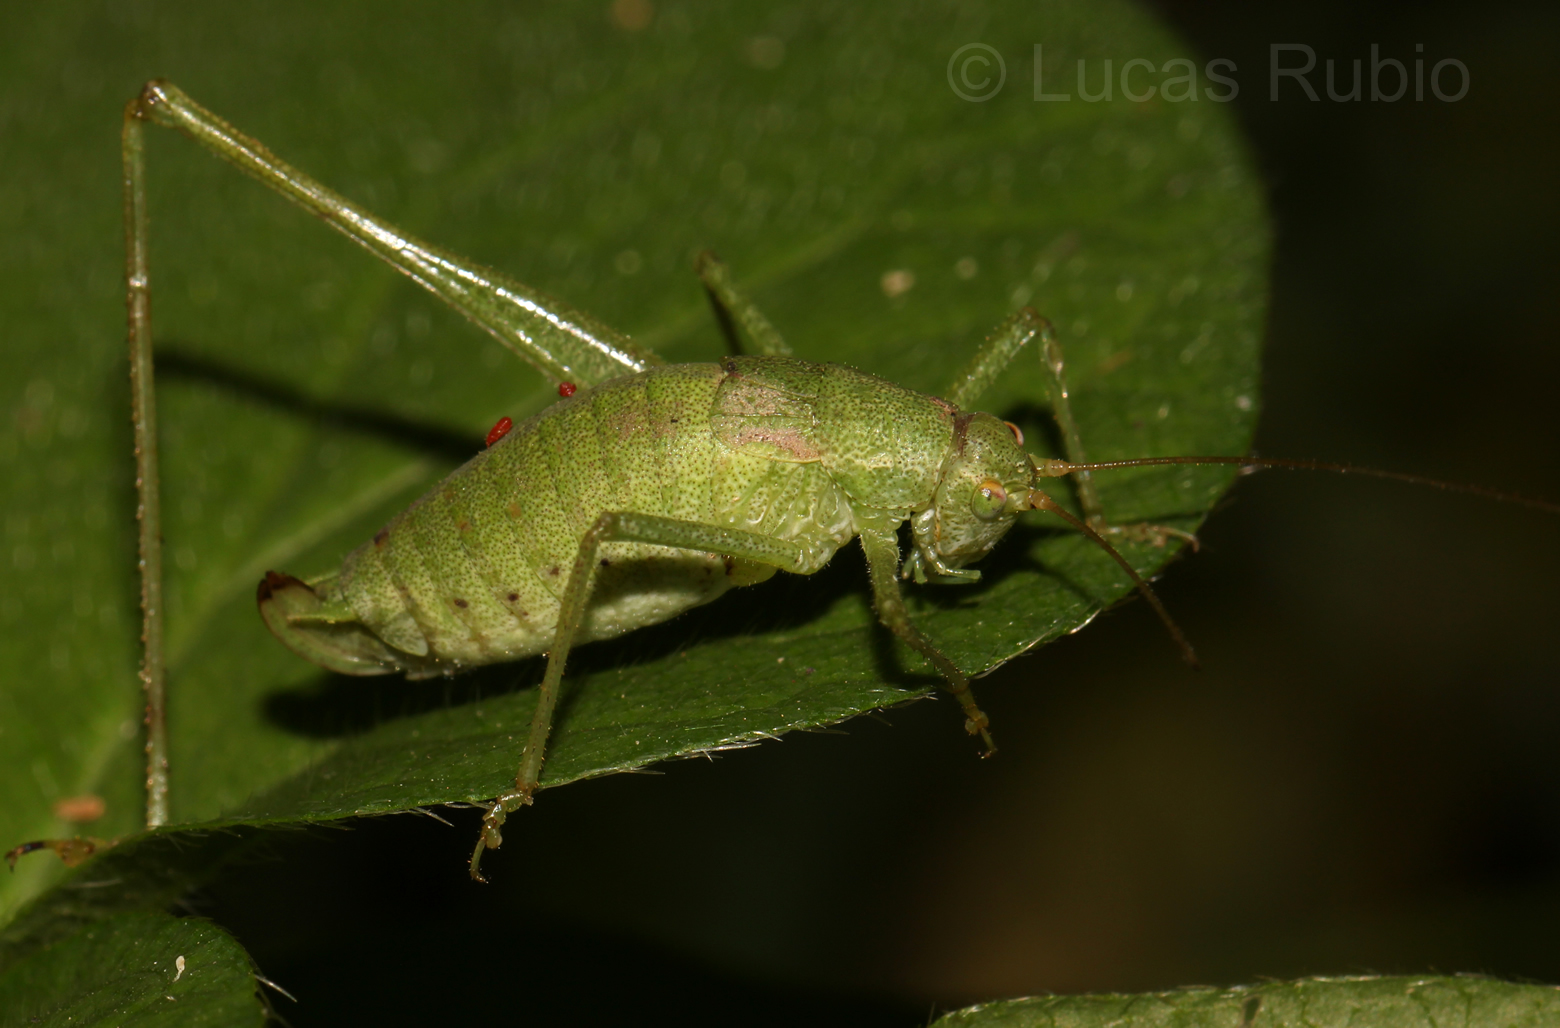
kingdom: Animalia
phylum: Arthropoda
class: Insecta
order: Orthoptera
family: Tettigoniidae
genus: Anisophya
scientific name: Anisophya punctinervis
